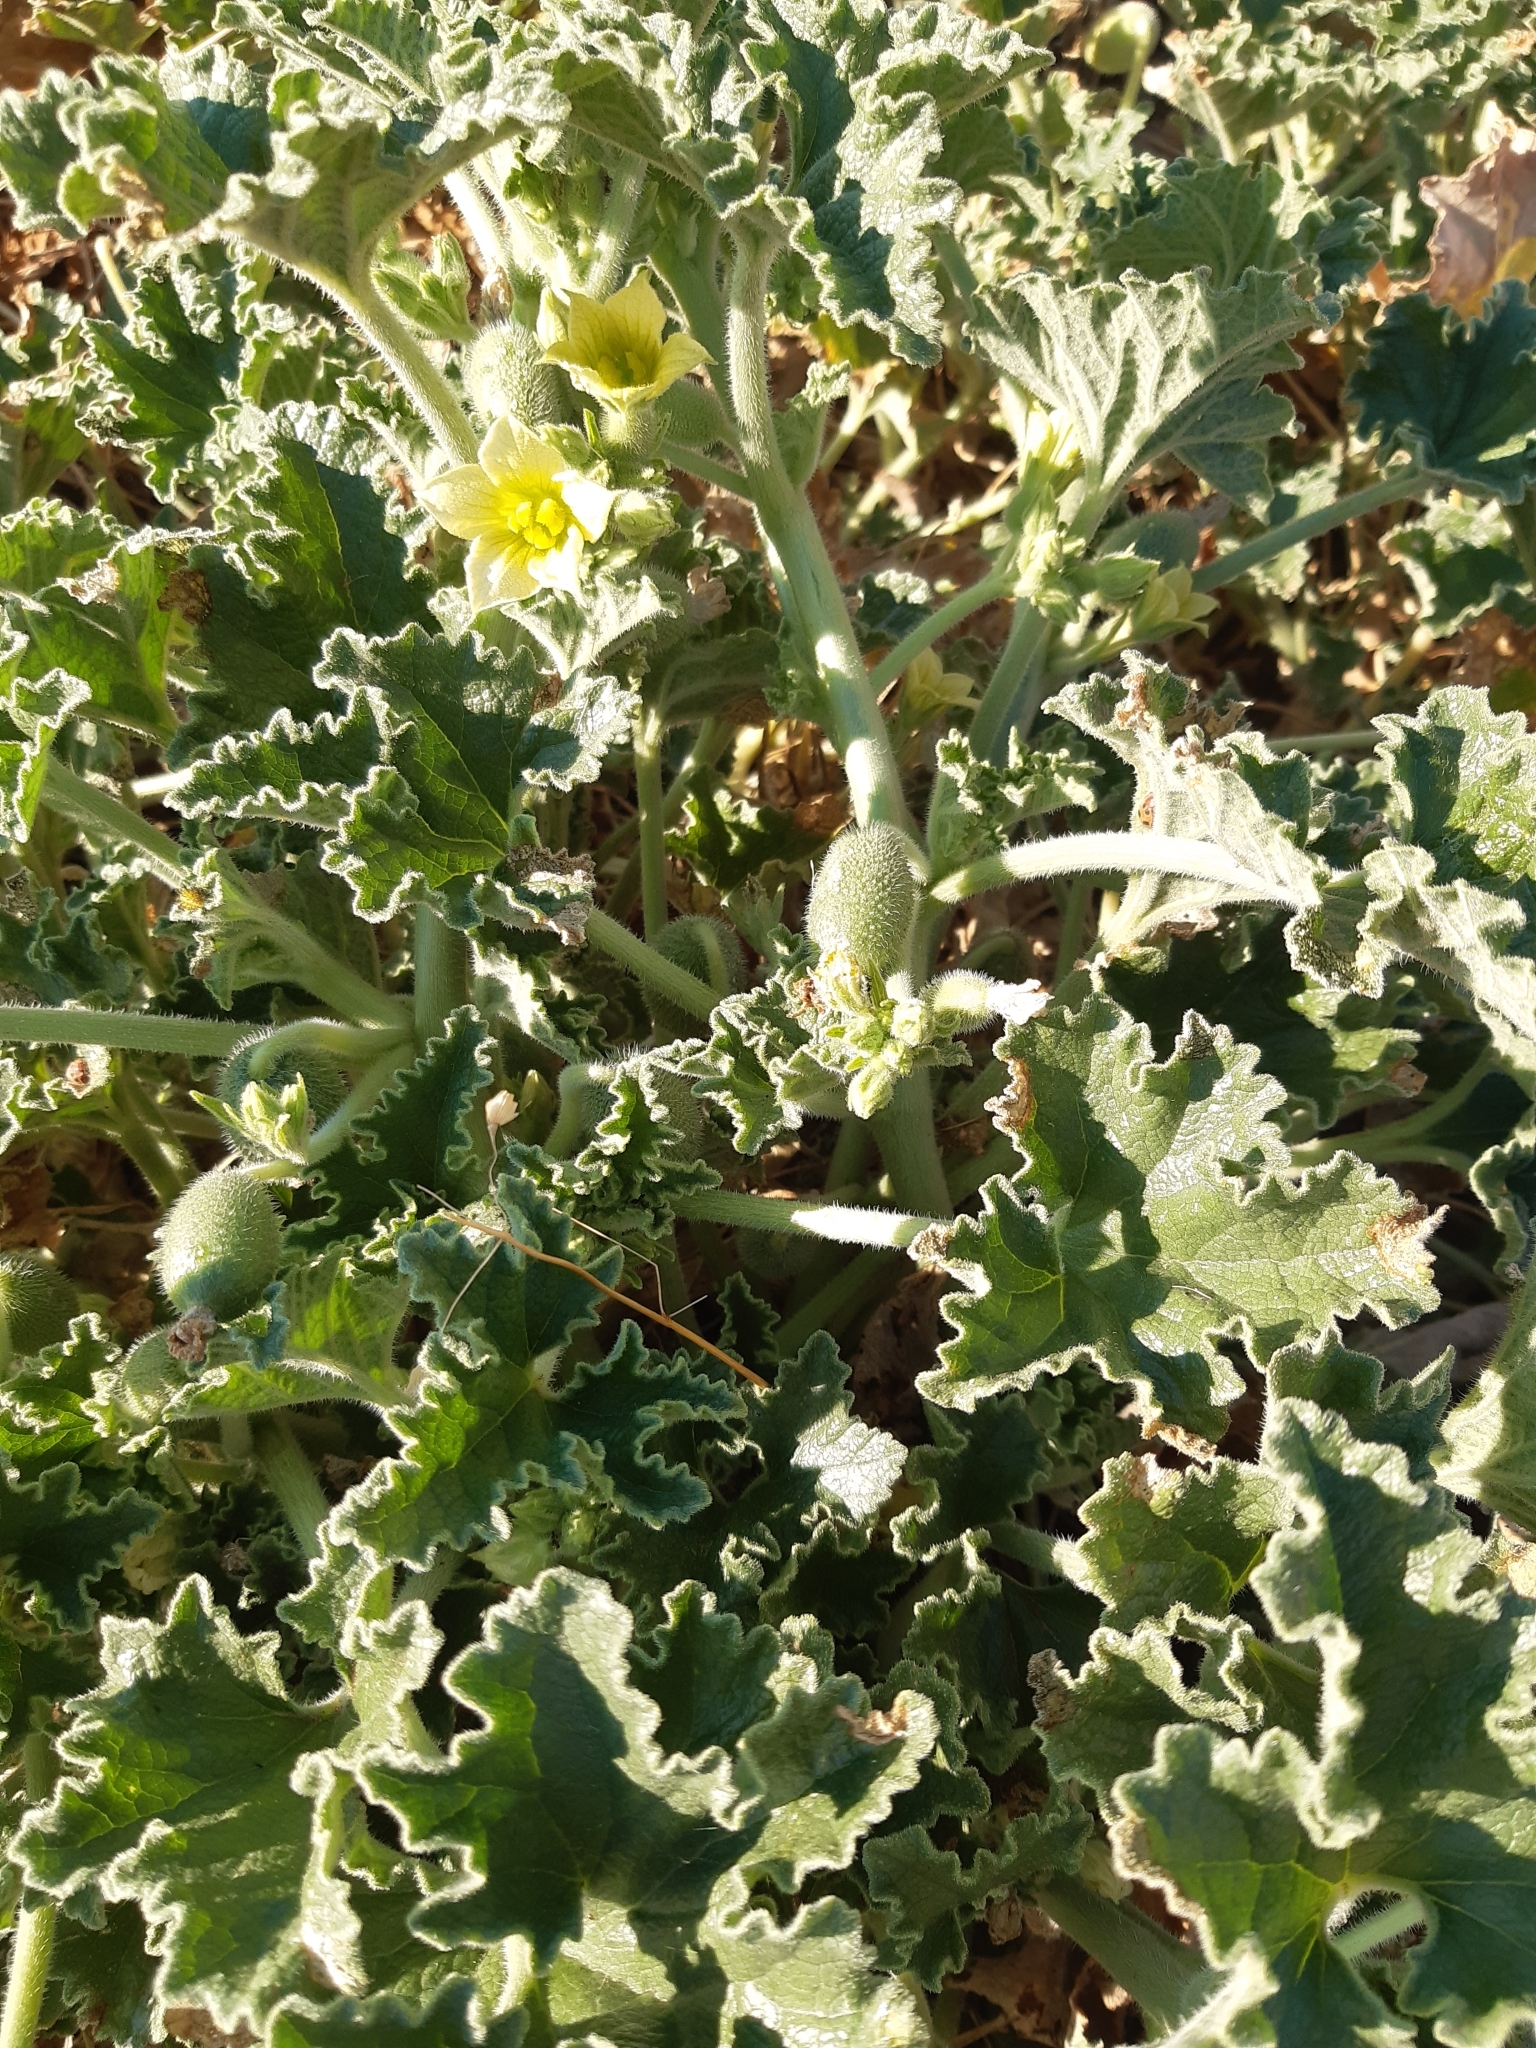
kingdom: Plantae
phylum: Tracheophyta
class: Magnoliopsida
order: Cucurbitales
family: Cucurbitaceae
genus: Ecballium
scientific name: Ecballium elaterium
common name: Squirting cucumber
